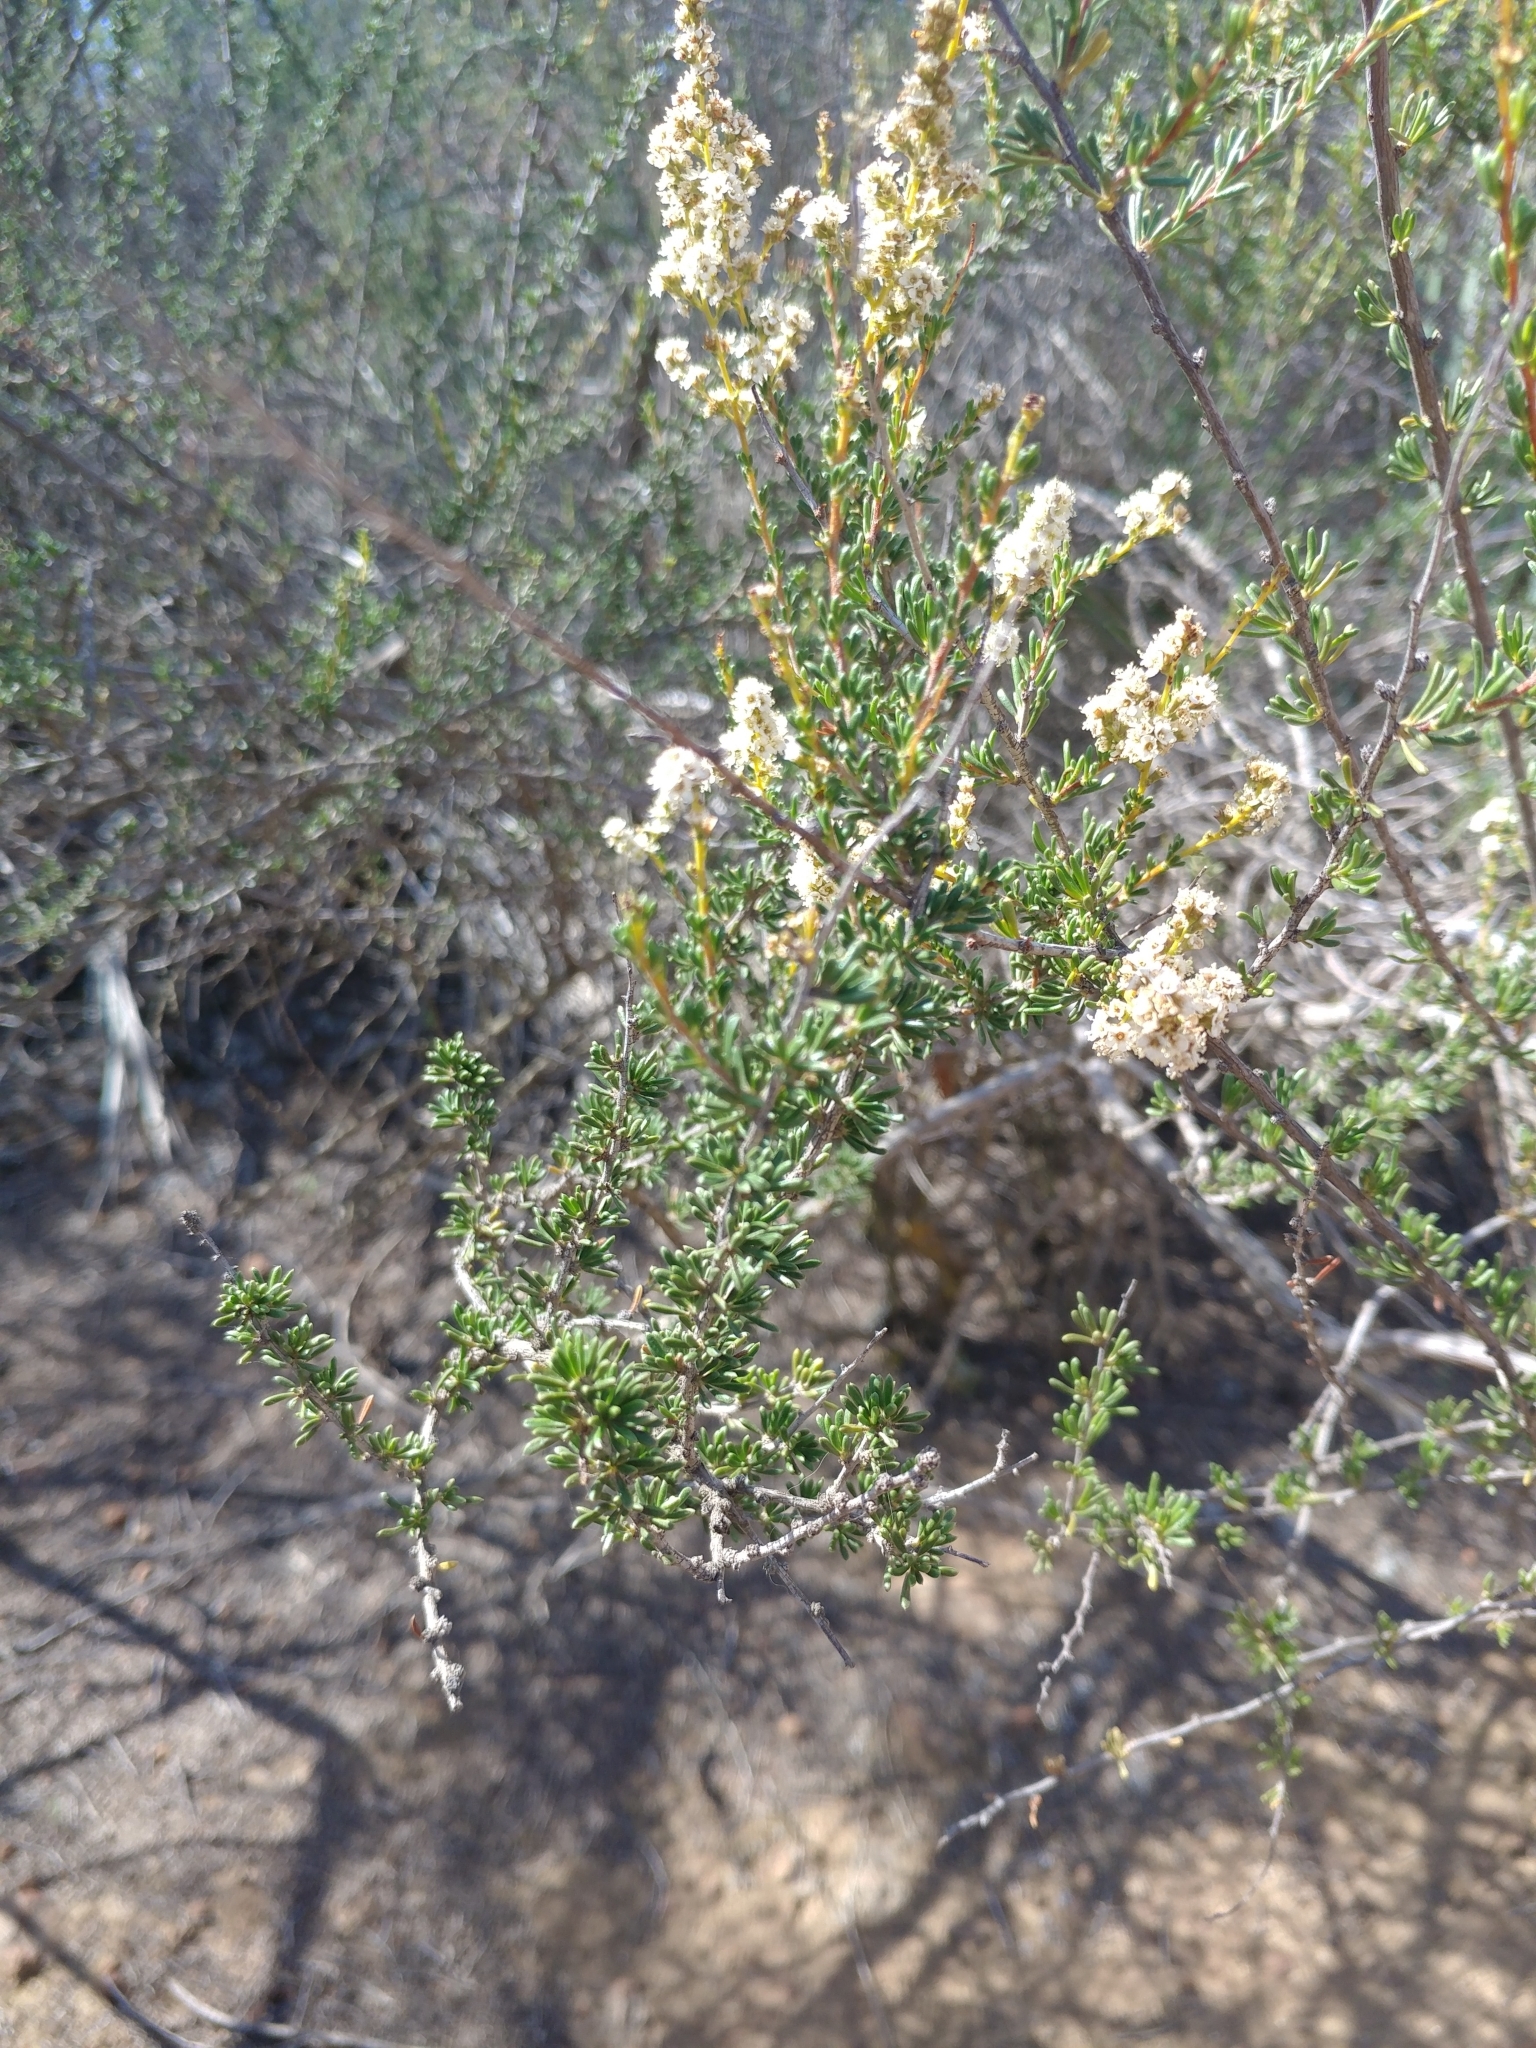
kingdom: Plantae
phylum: Tracheophyta
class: Magnoliopsida
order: Rosales
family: Rosaceae
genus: Adenostoma
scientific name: Adenostoma fasciculatum
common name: Chamise
